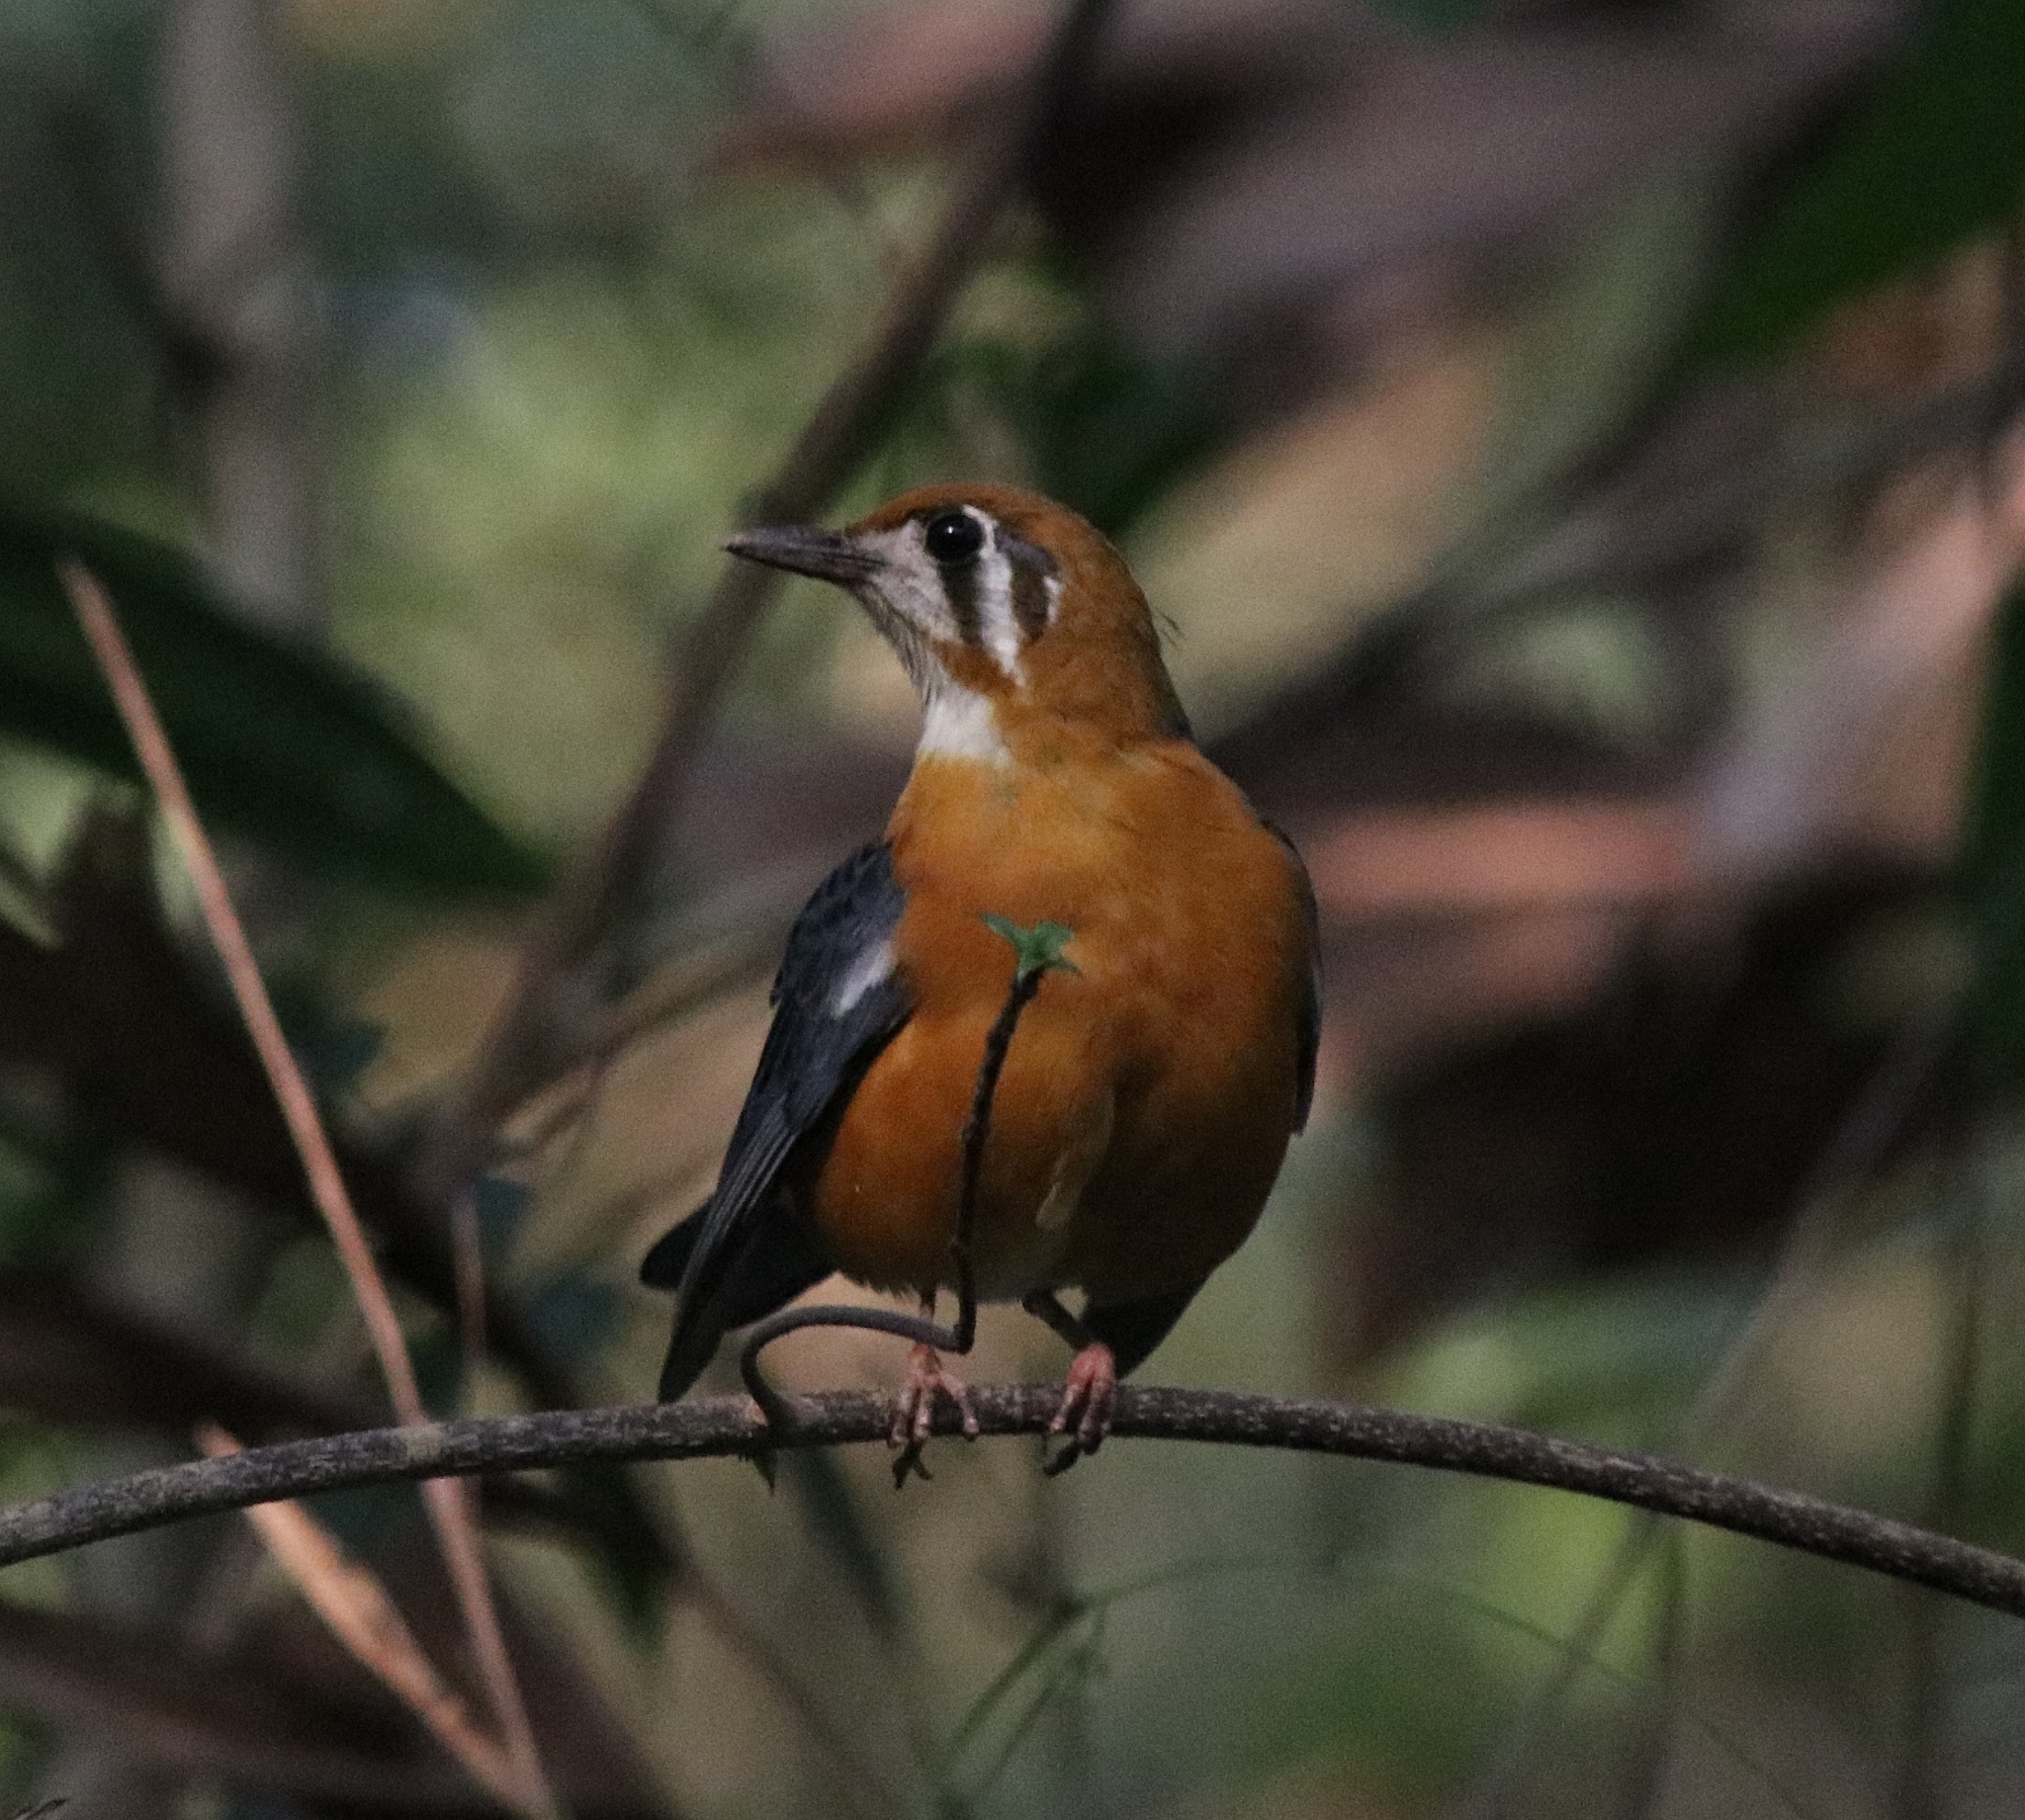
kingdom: Animalia
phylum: Chordata
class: Aves
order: Passeriformes
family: Turdidae
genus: Geokichla
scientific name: Geokichla citrina
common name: Orange-headed thrush
